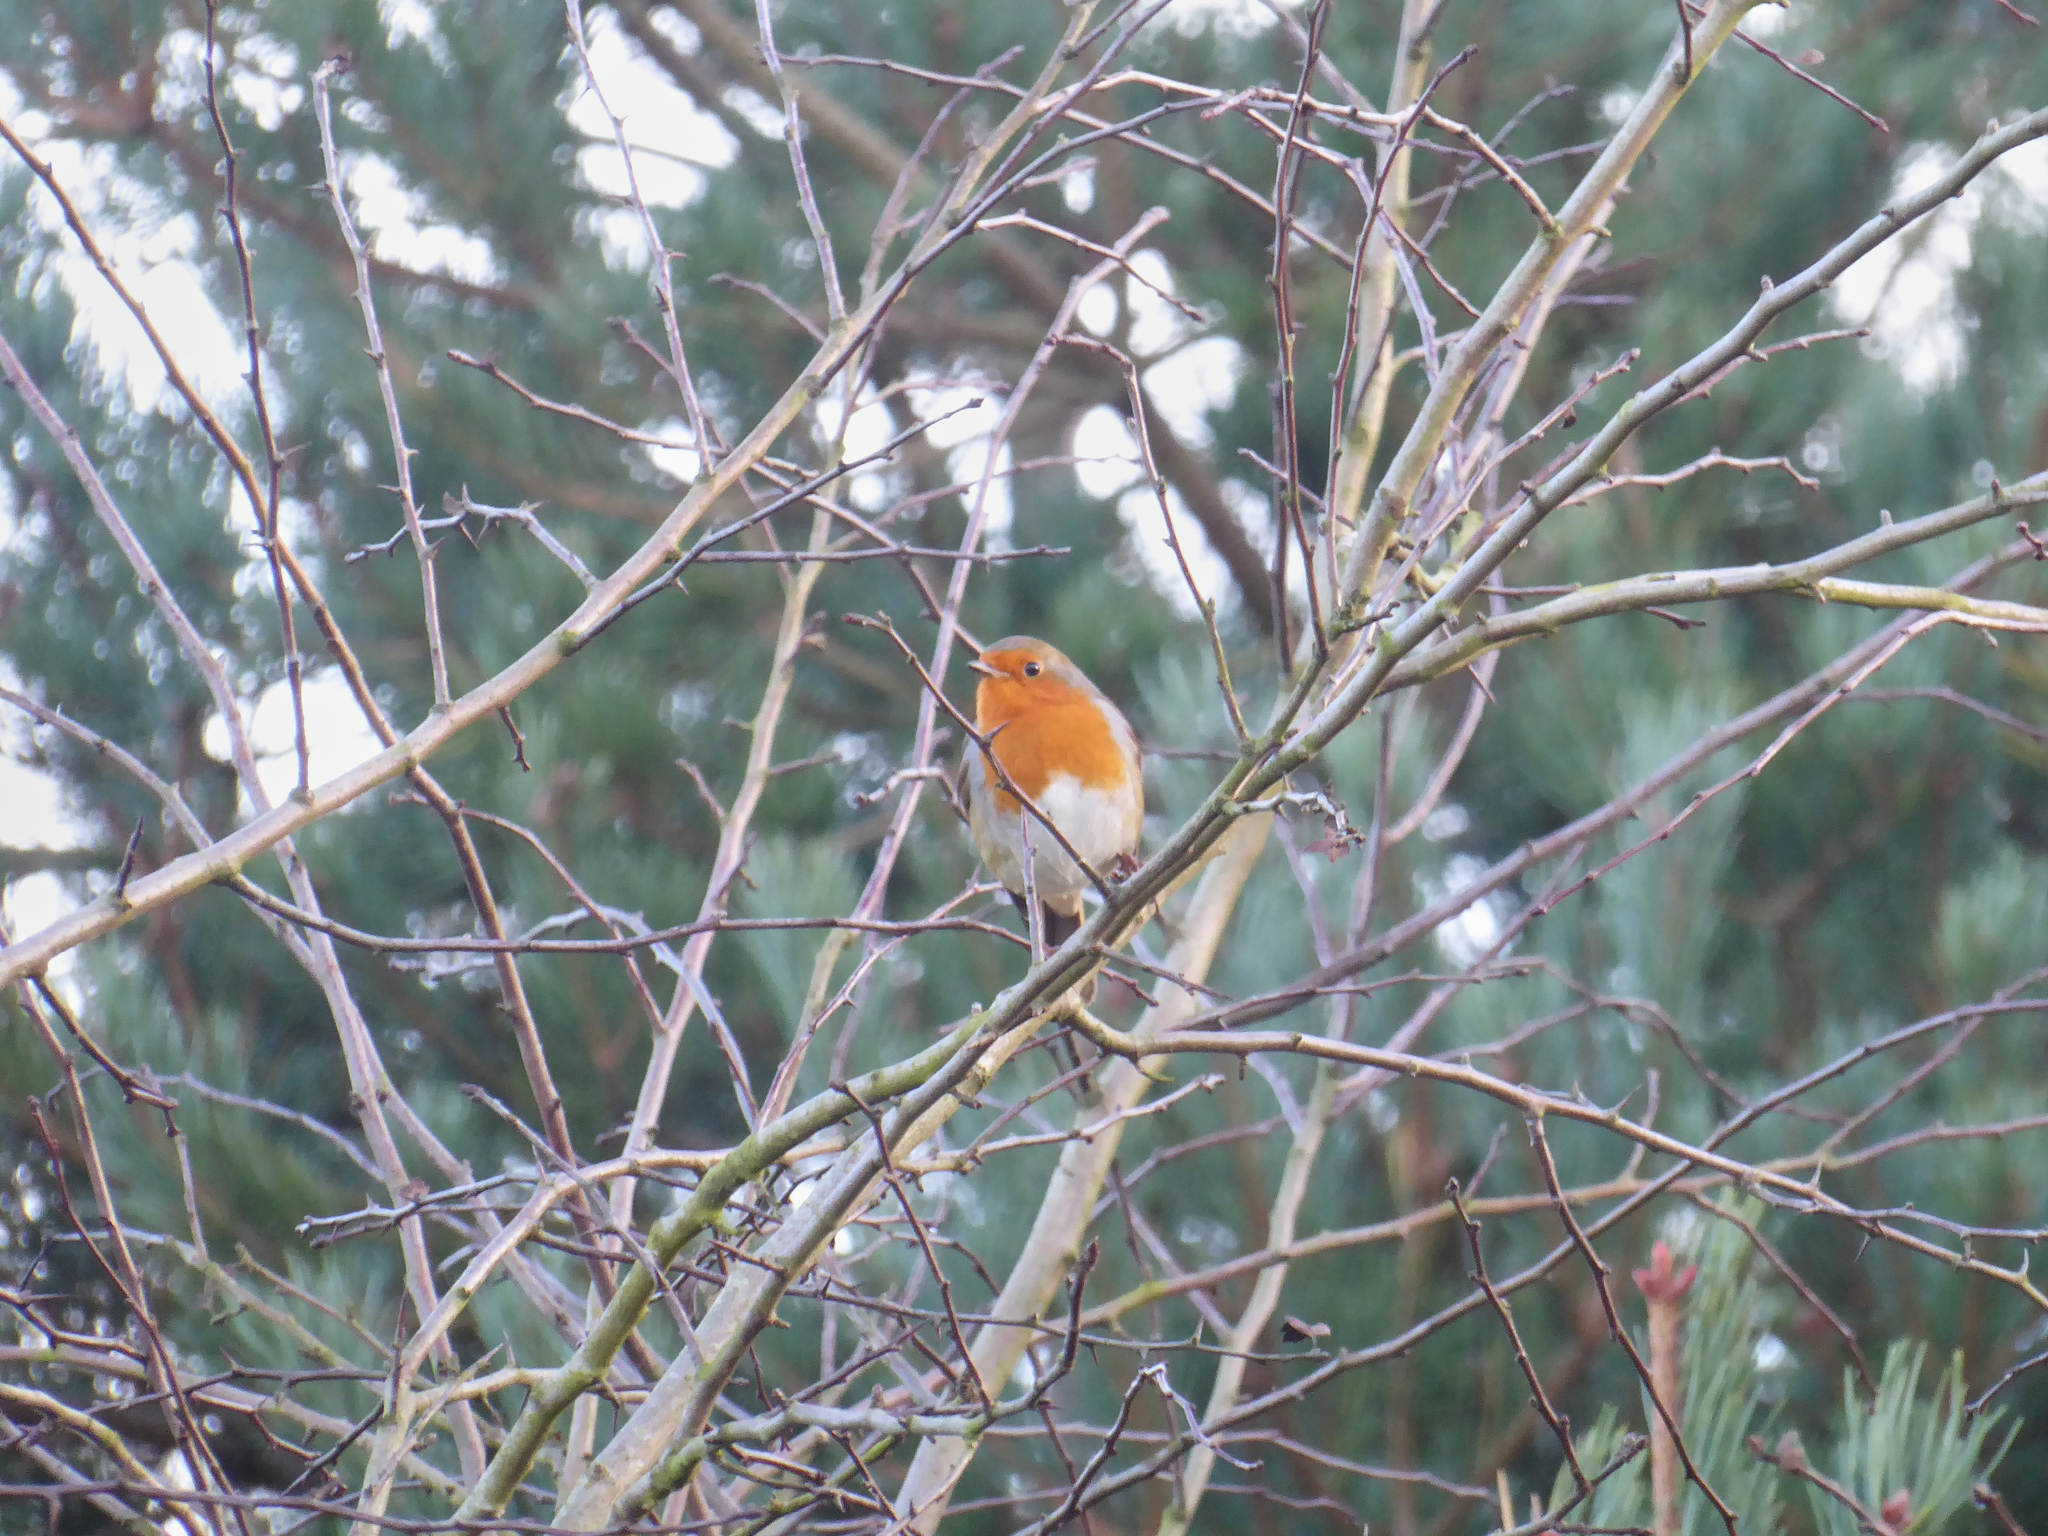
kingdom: Animalia
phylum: Chordata
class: Aves
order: Passeriformes
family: Muscicapidae
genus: Erithacus
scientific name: Erithacus rubecula
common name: European robin
